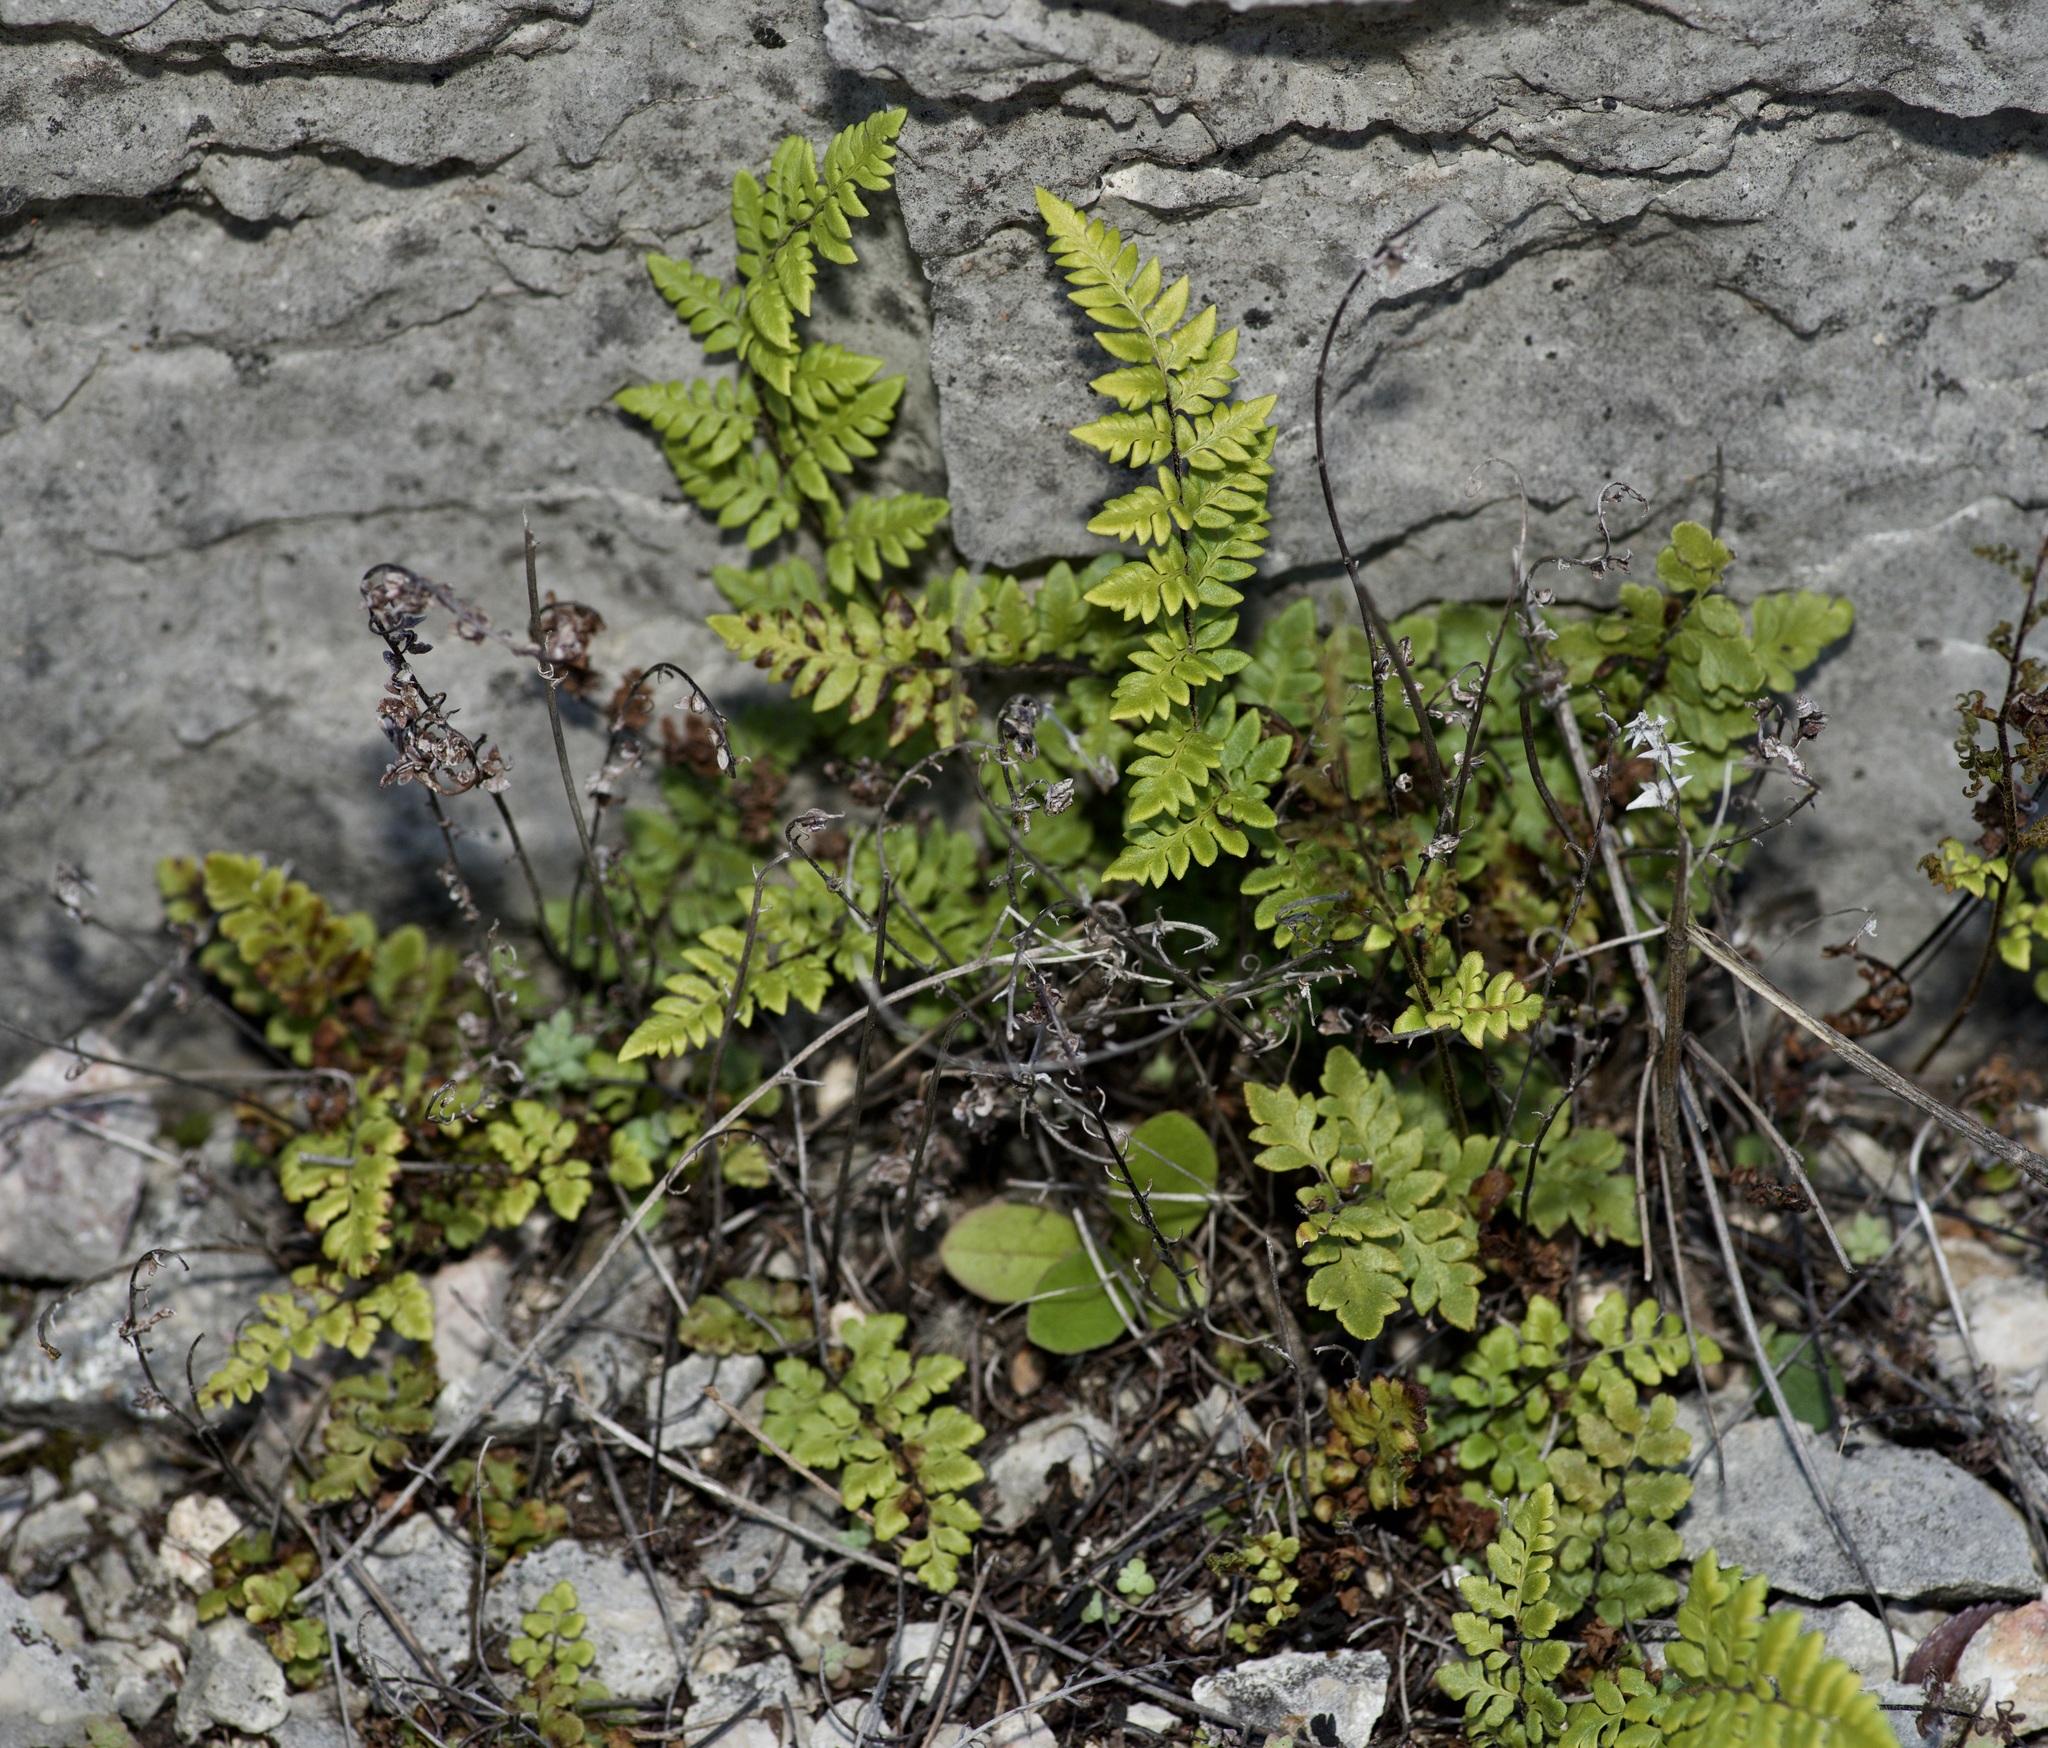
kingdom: Plantae
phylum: Tracheophyta
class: Polypodiopsida
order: Polypodiales
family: Pteridaceae
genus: Myriopteris
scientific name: Myriopteris alabamensis
